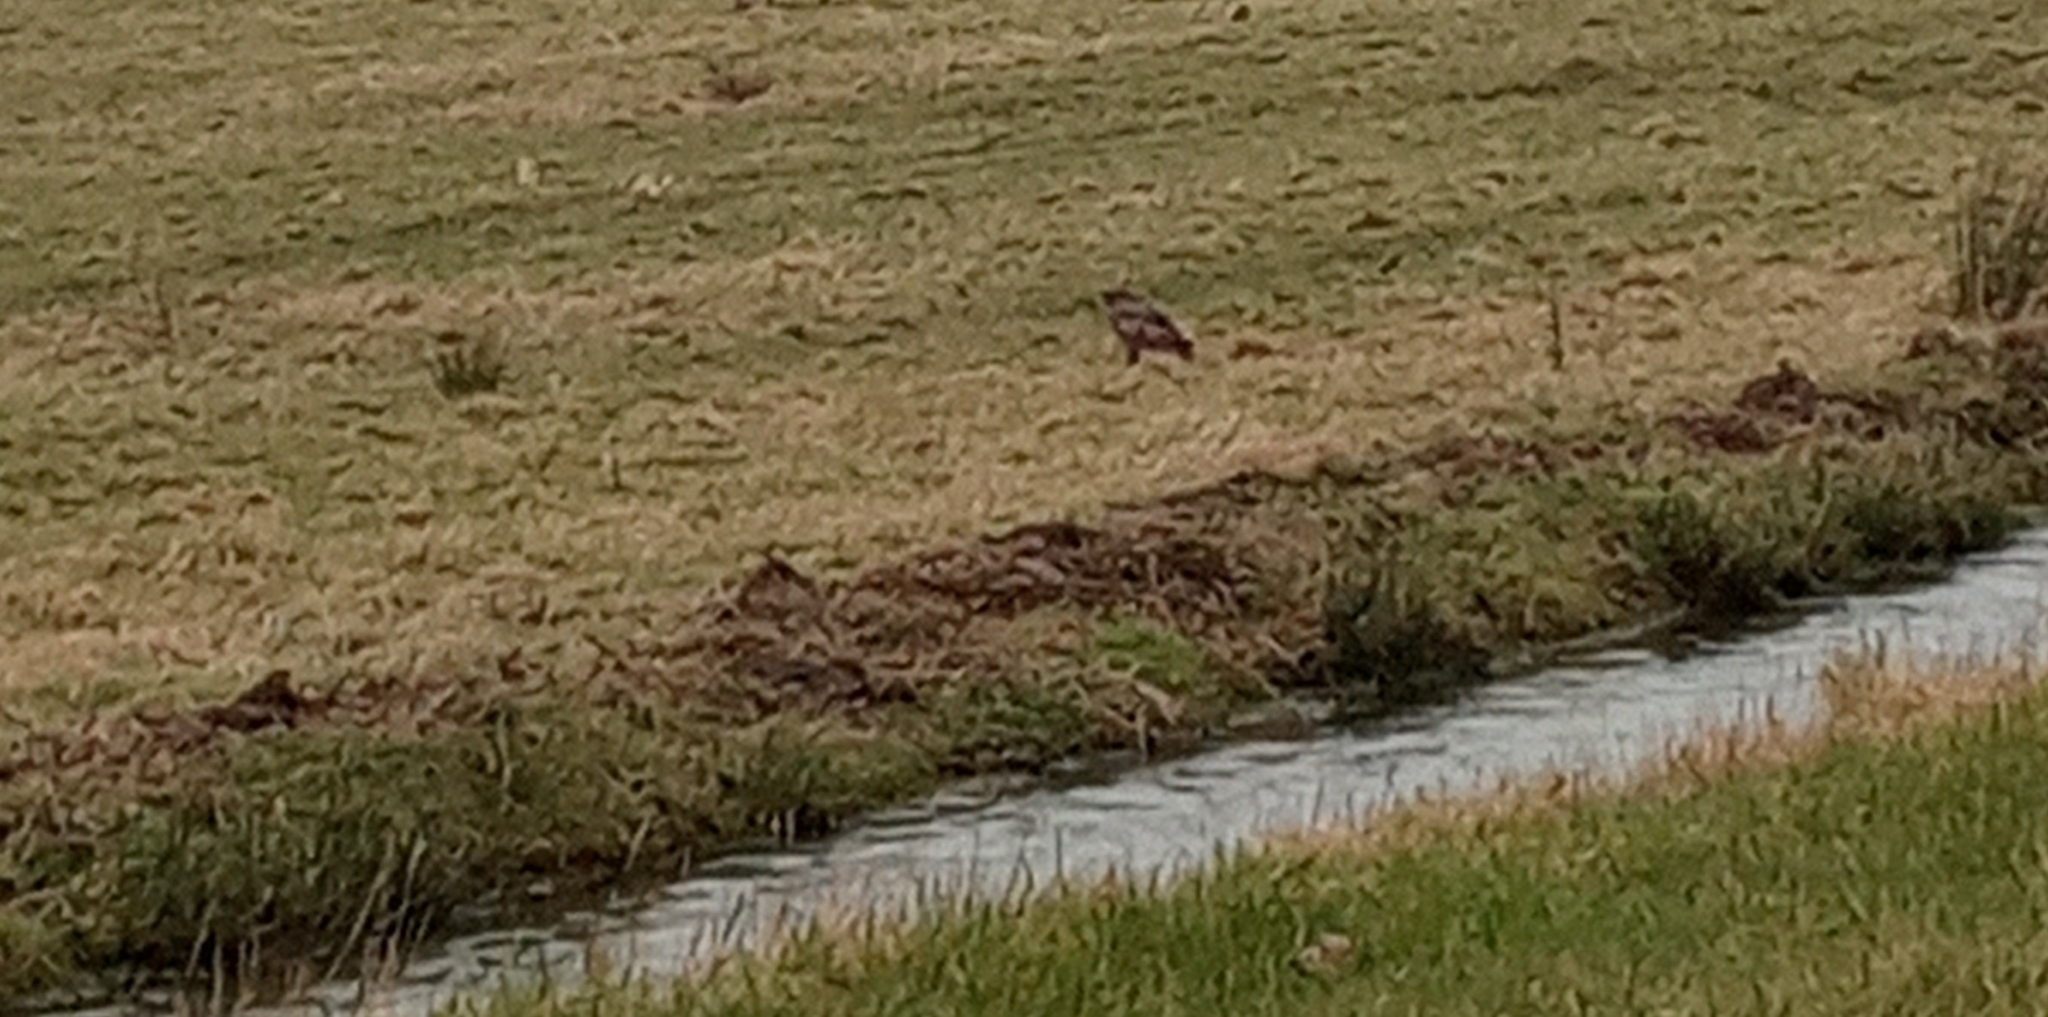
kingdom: Animalia
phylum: Chordata
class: Aves
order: Accipitriformes
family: Accipitridae
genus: Buteo
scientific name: Buteo buteo
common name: Common buzzard
